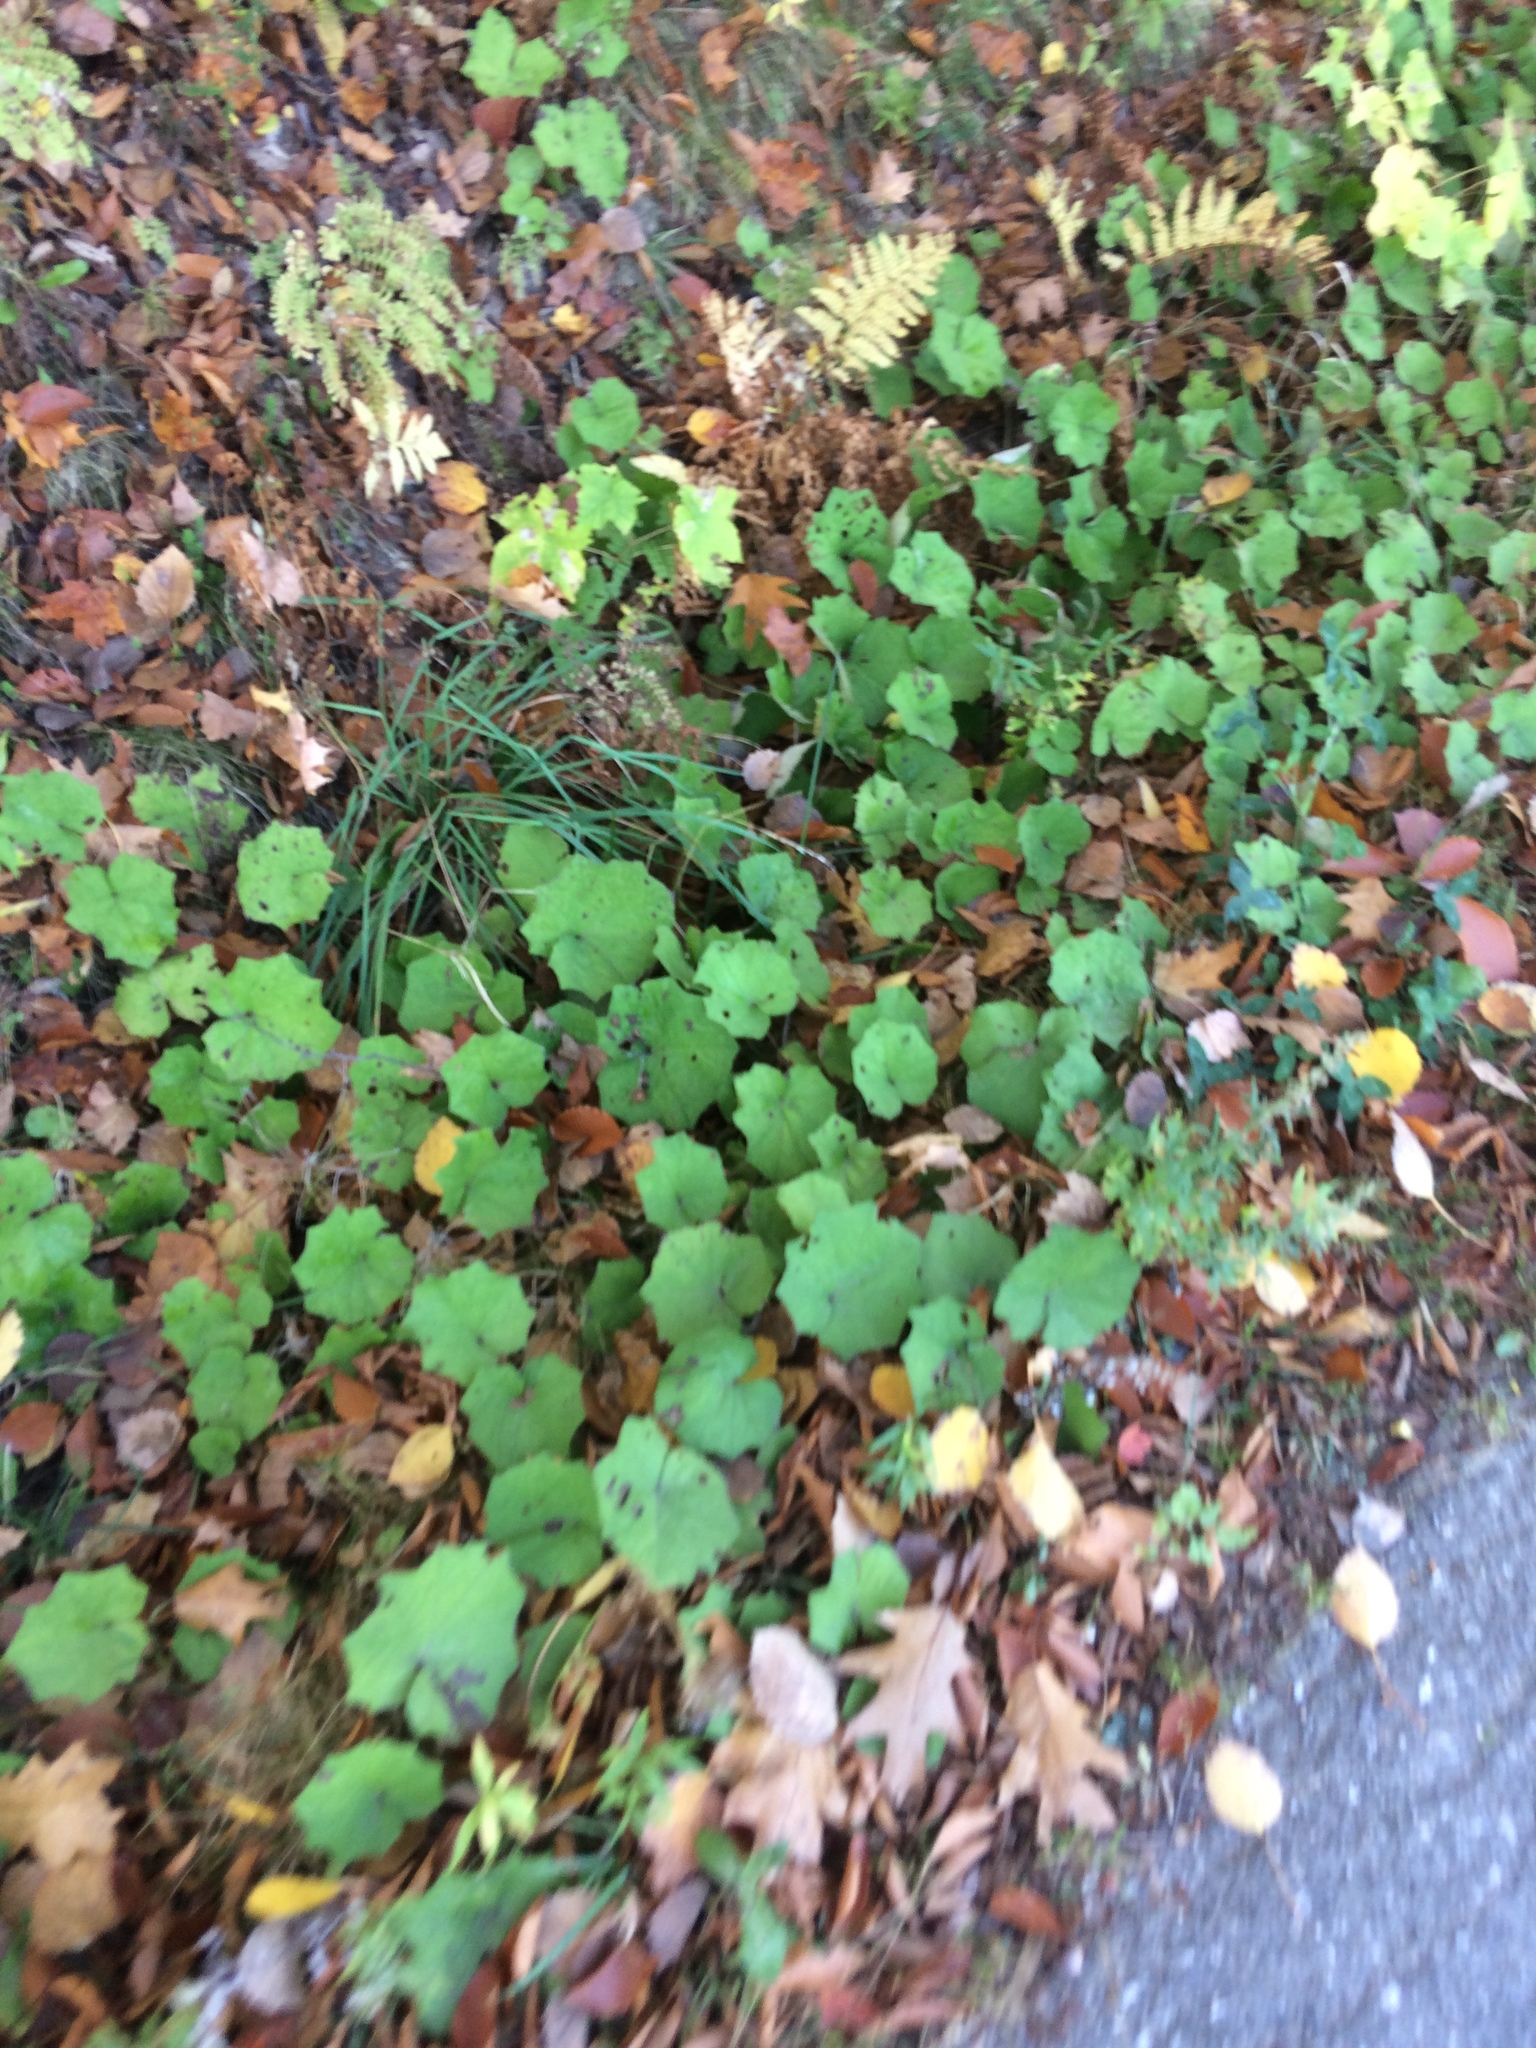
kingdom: Plantae
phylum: Tracheophyta
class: Magnoliopsida
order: Asterales
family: Asteraceae
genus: Tussilago
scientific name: Tussilago farfara
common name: Coltsfoot
